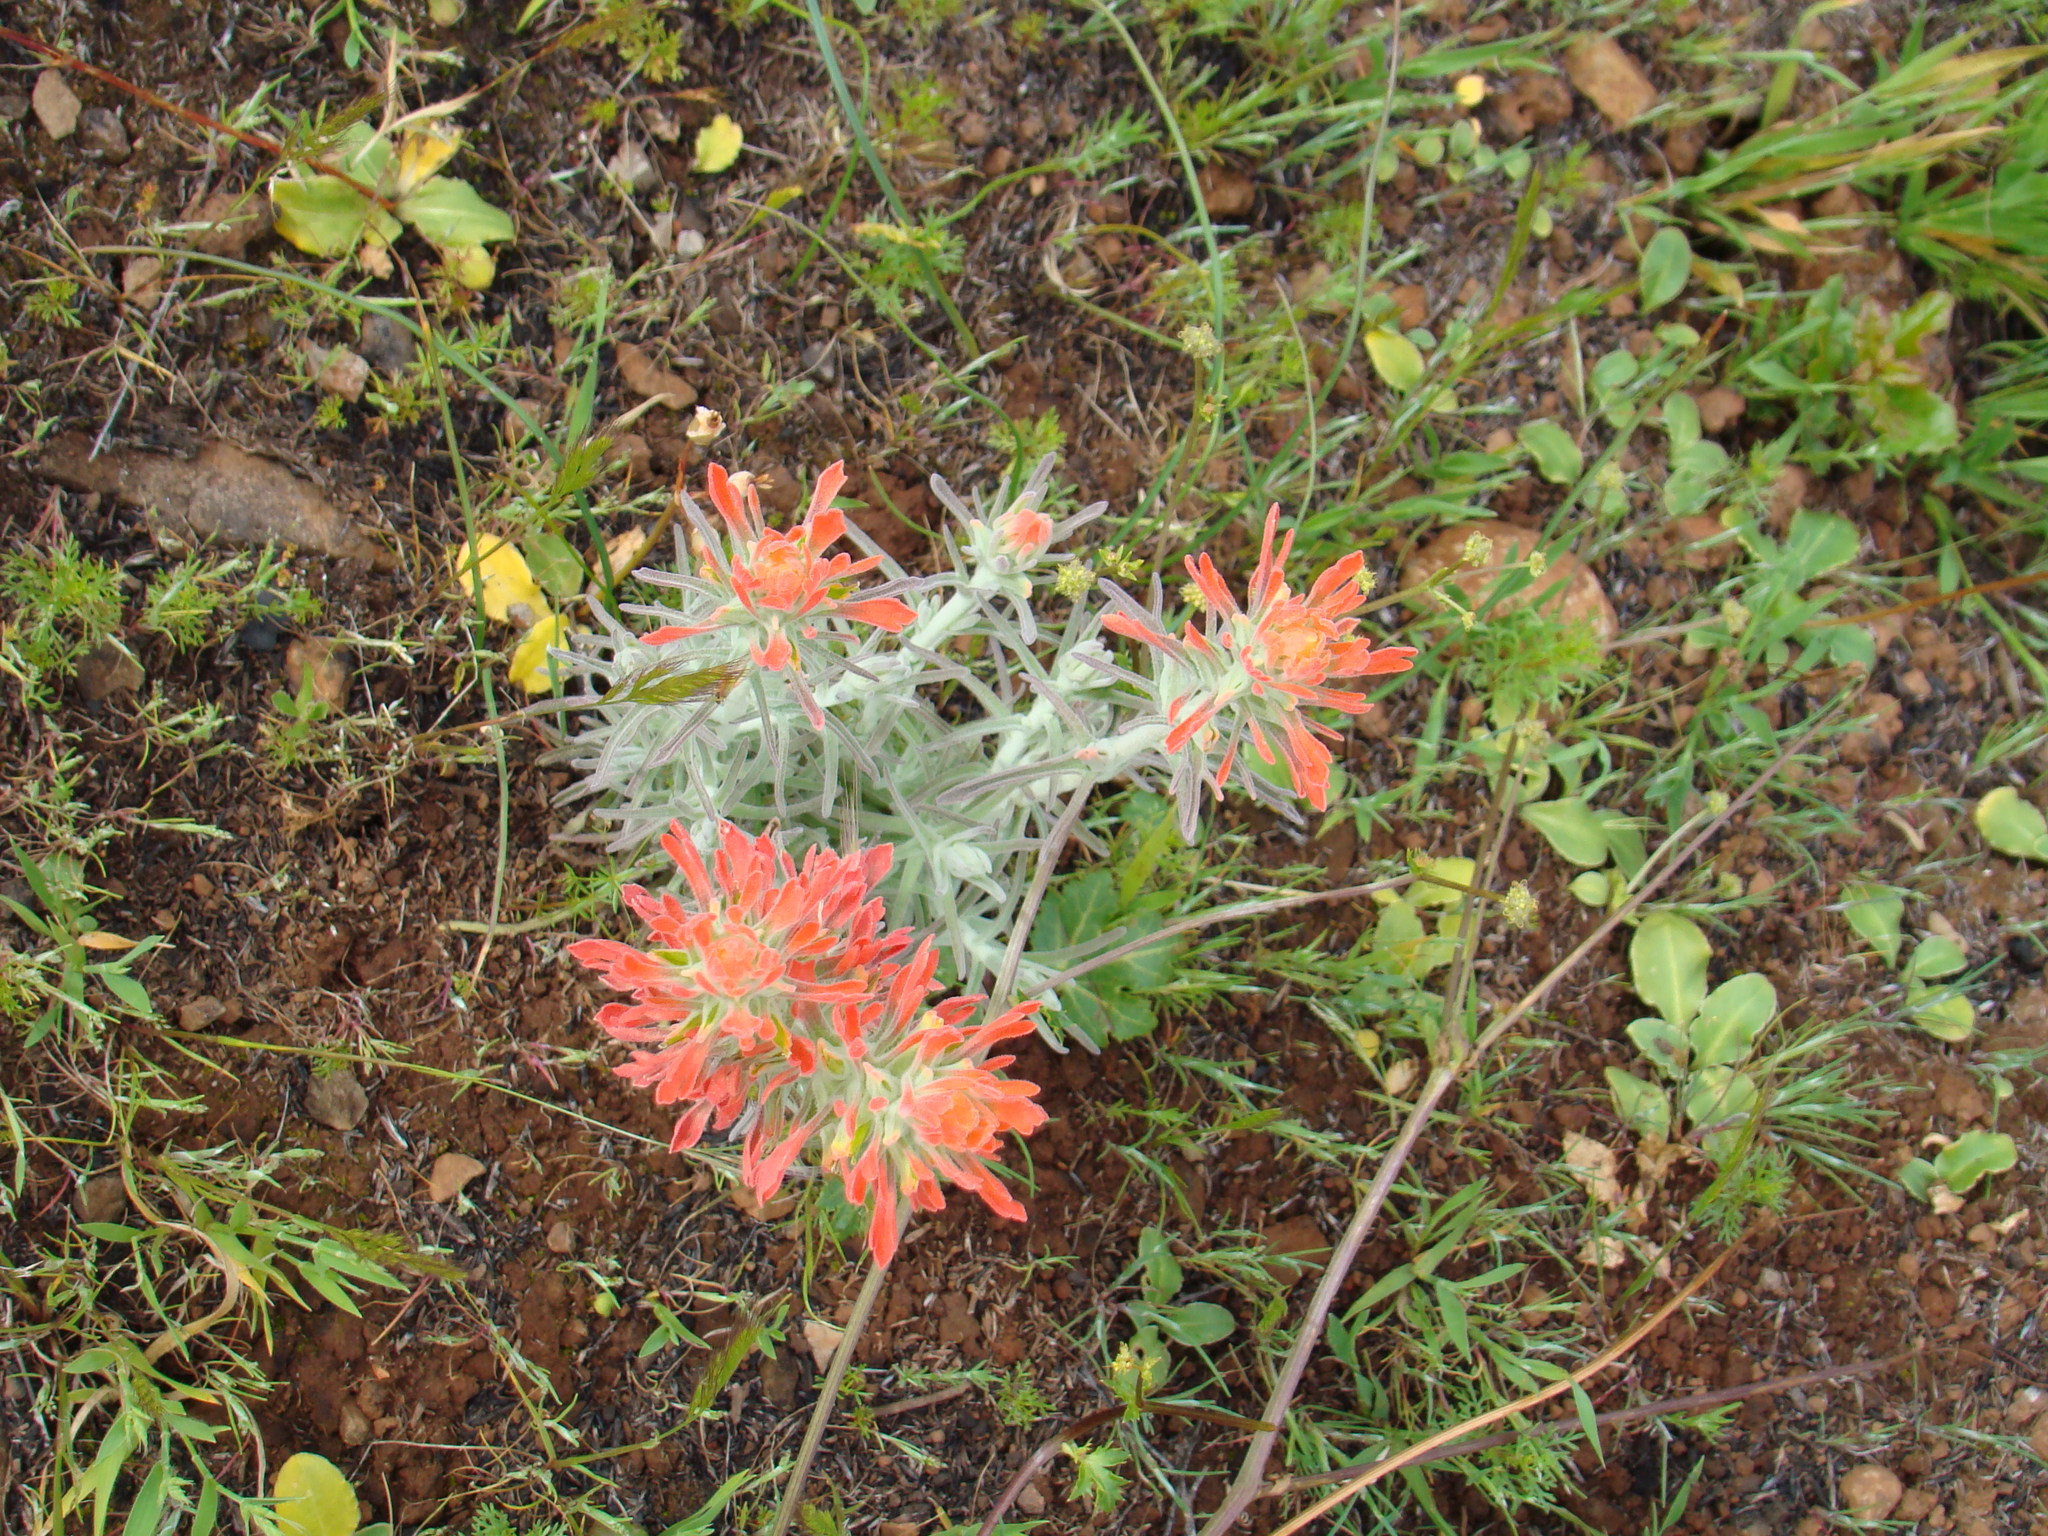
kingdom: Plantae
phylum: Tracheophyta
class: Magnoliopsida
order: Lamiales
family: Orobanchaceae
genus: Castilleja
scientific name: Castilleja foliolosa
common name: Woolly indian paintbrush
